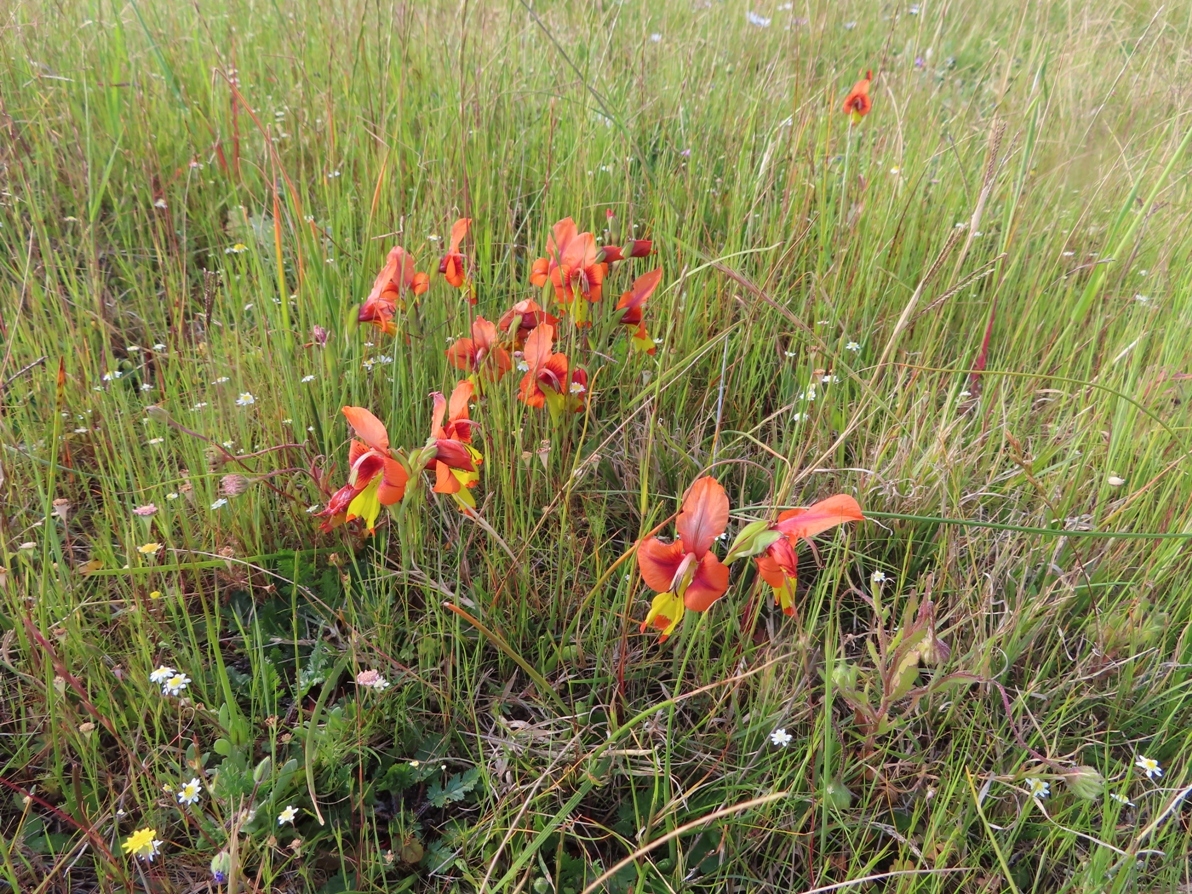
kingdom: Plantae
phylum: Tracheophyta
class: Liliopsida
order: Asparagales
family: Iridaceae
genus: Gladiolus
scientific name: Gladiolus alatus
